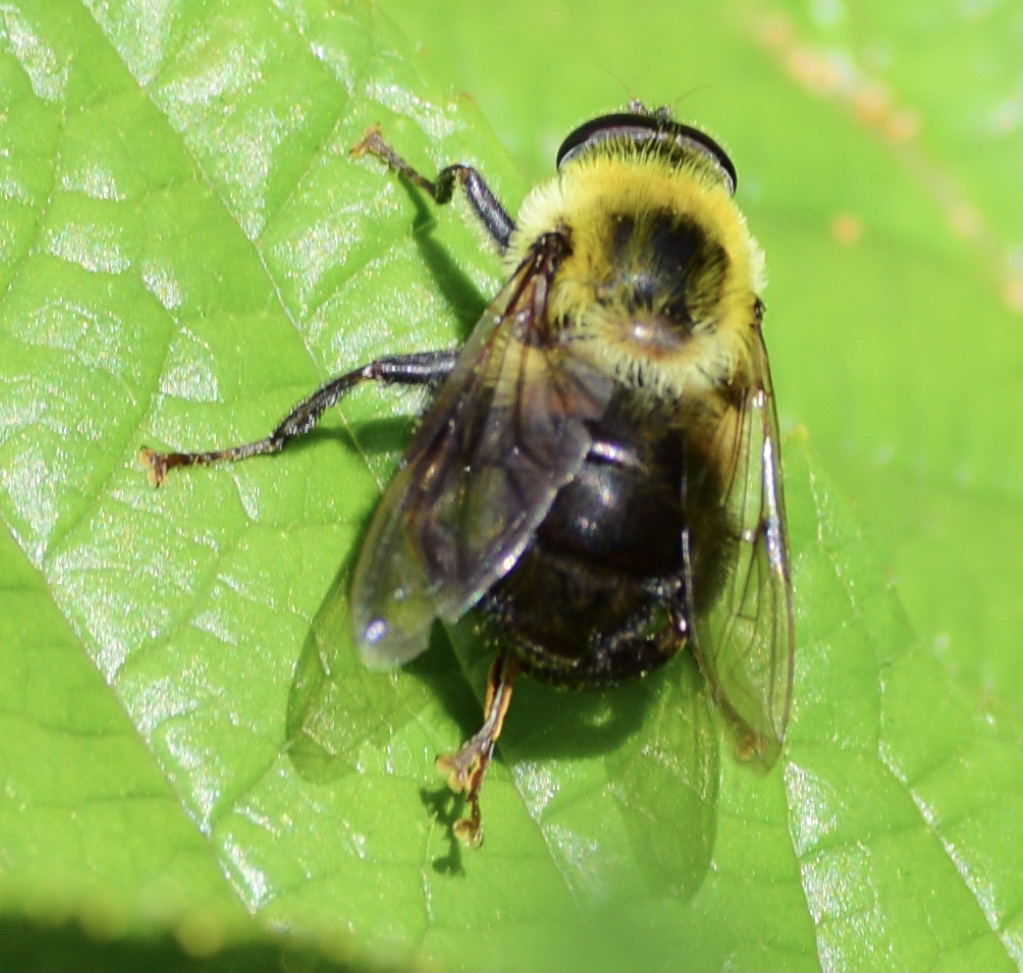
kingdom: Animalia
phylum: Arthropoda
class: Insecta
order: Diptera
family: Syrphidae
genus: Imatisma
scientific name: Imatisma posticata
